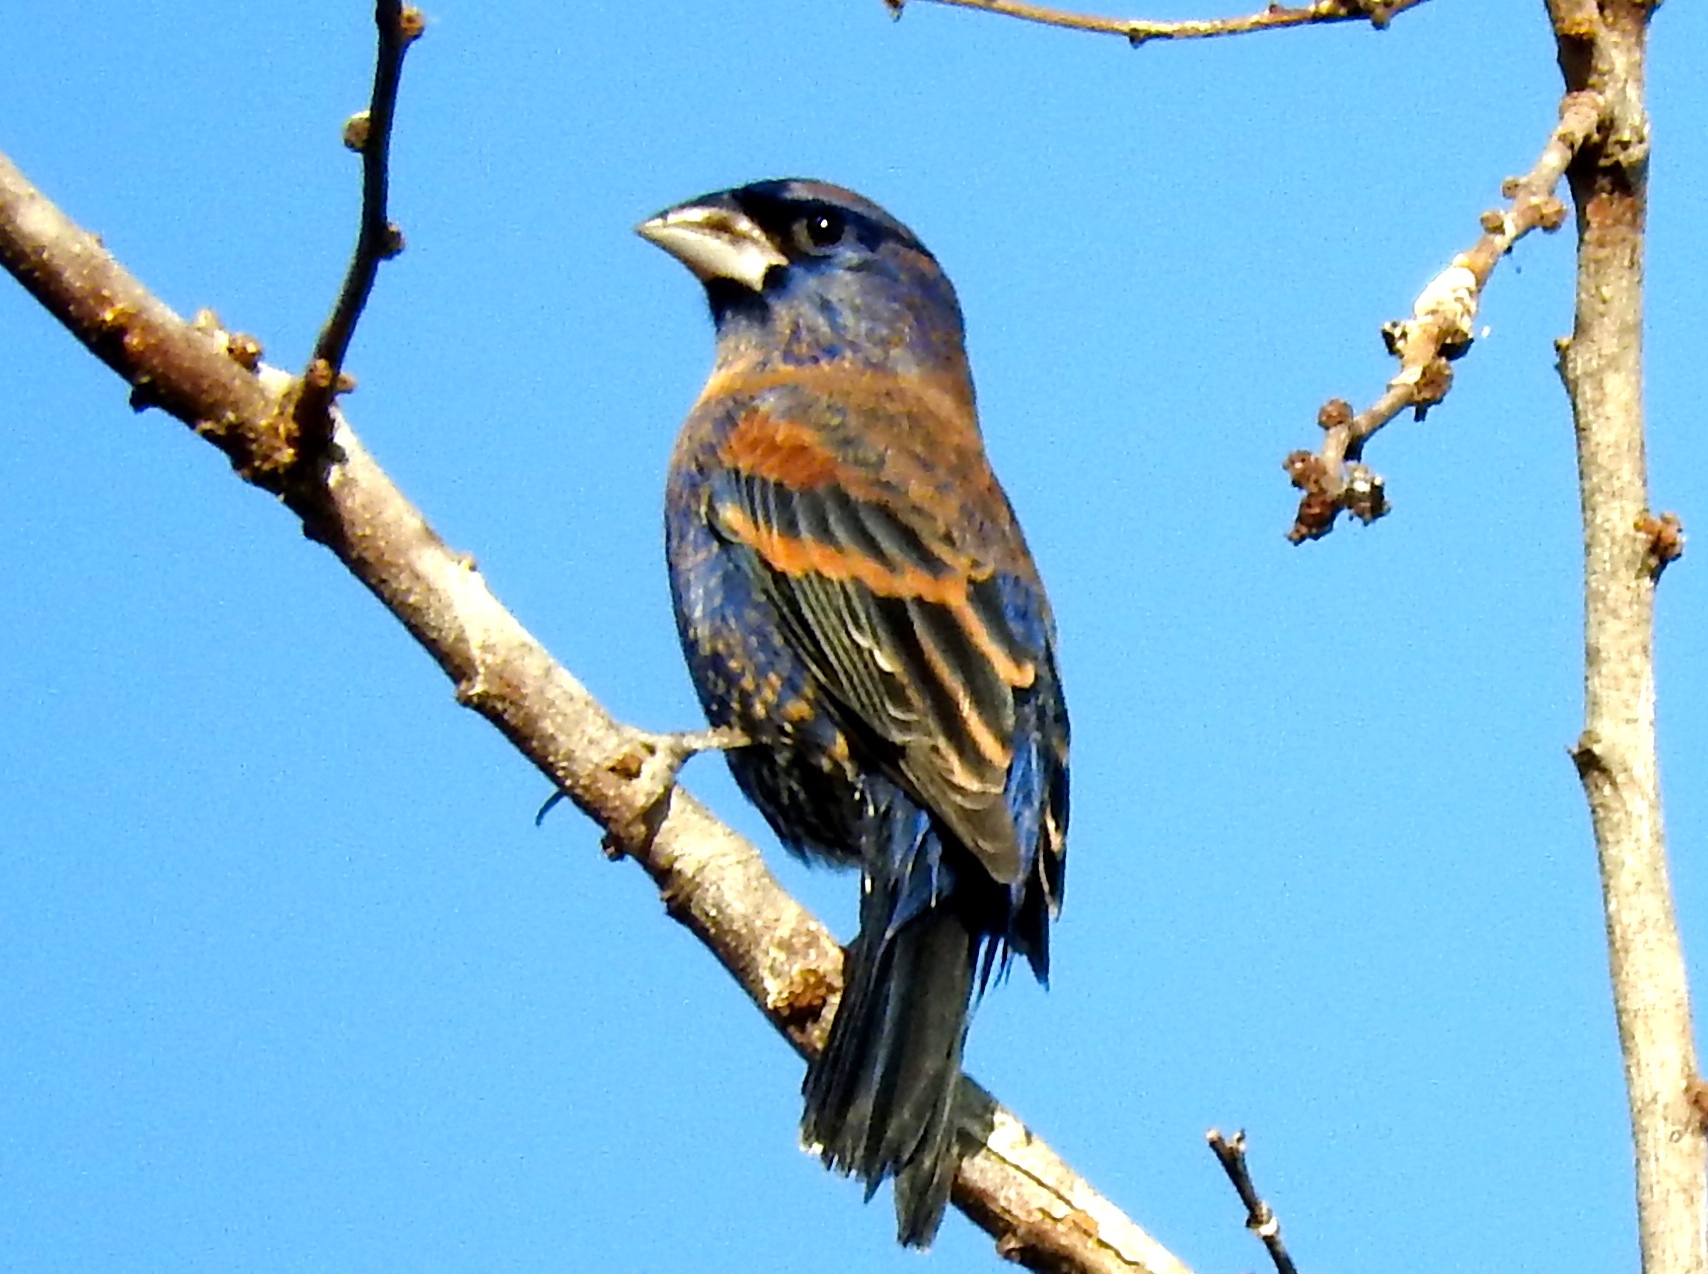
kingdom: Animalia
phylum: Chordata
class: Aves
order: Passeriformes
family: Cardinalidae
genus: Passerina
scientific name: Passerina caerulea
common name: Blue grosbeak
